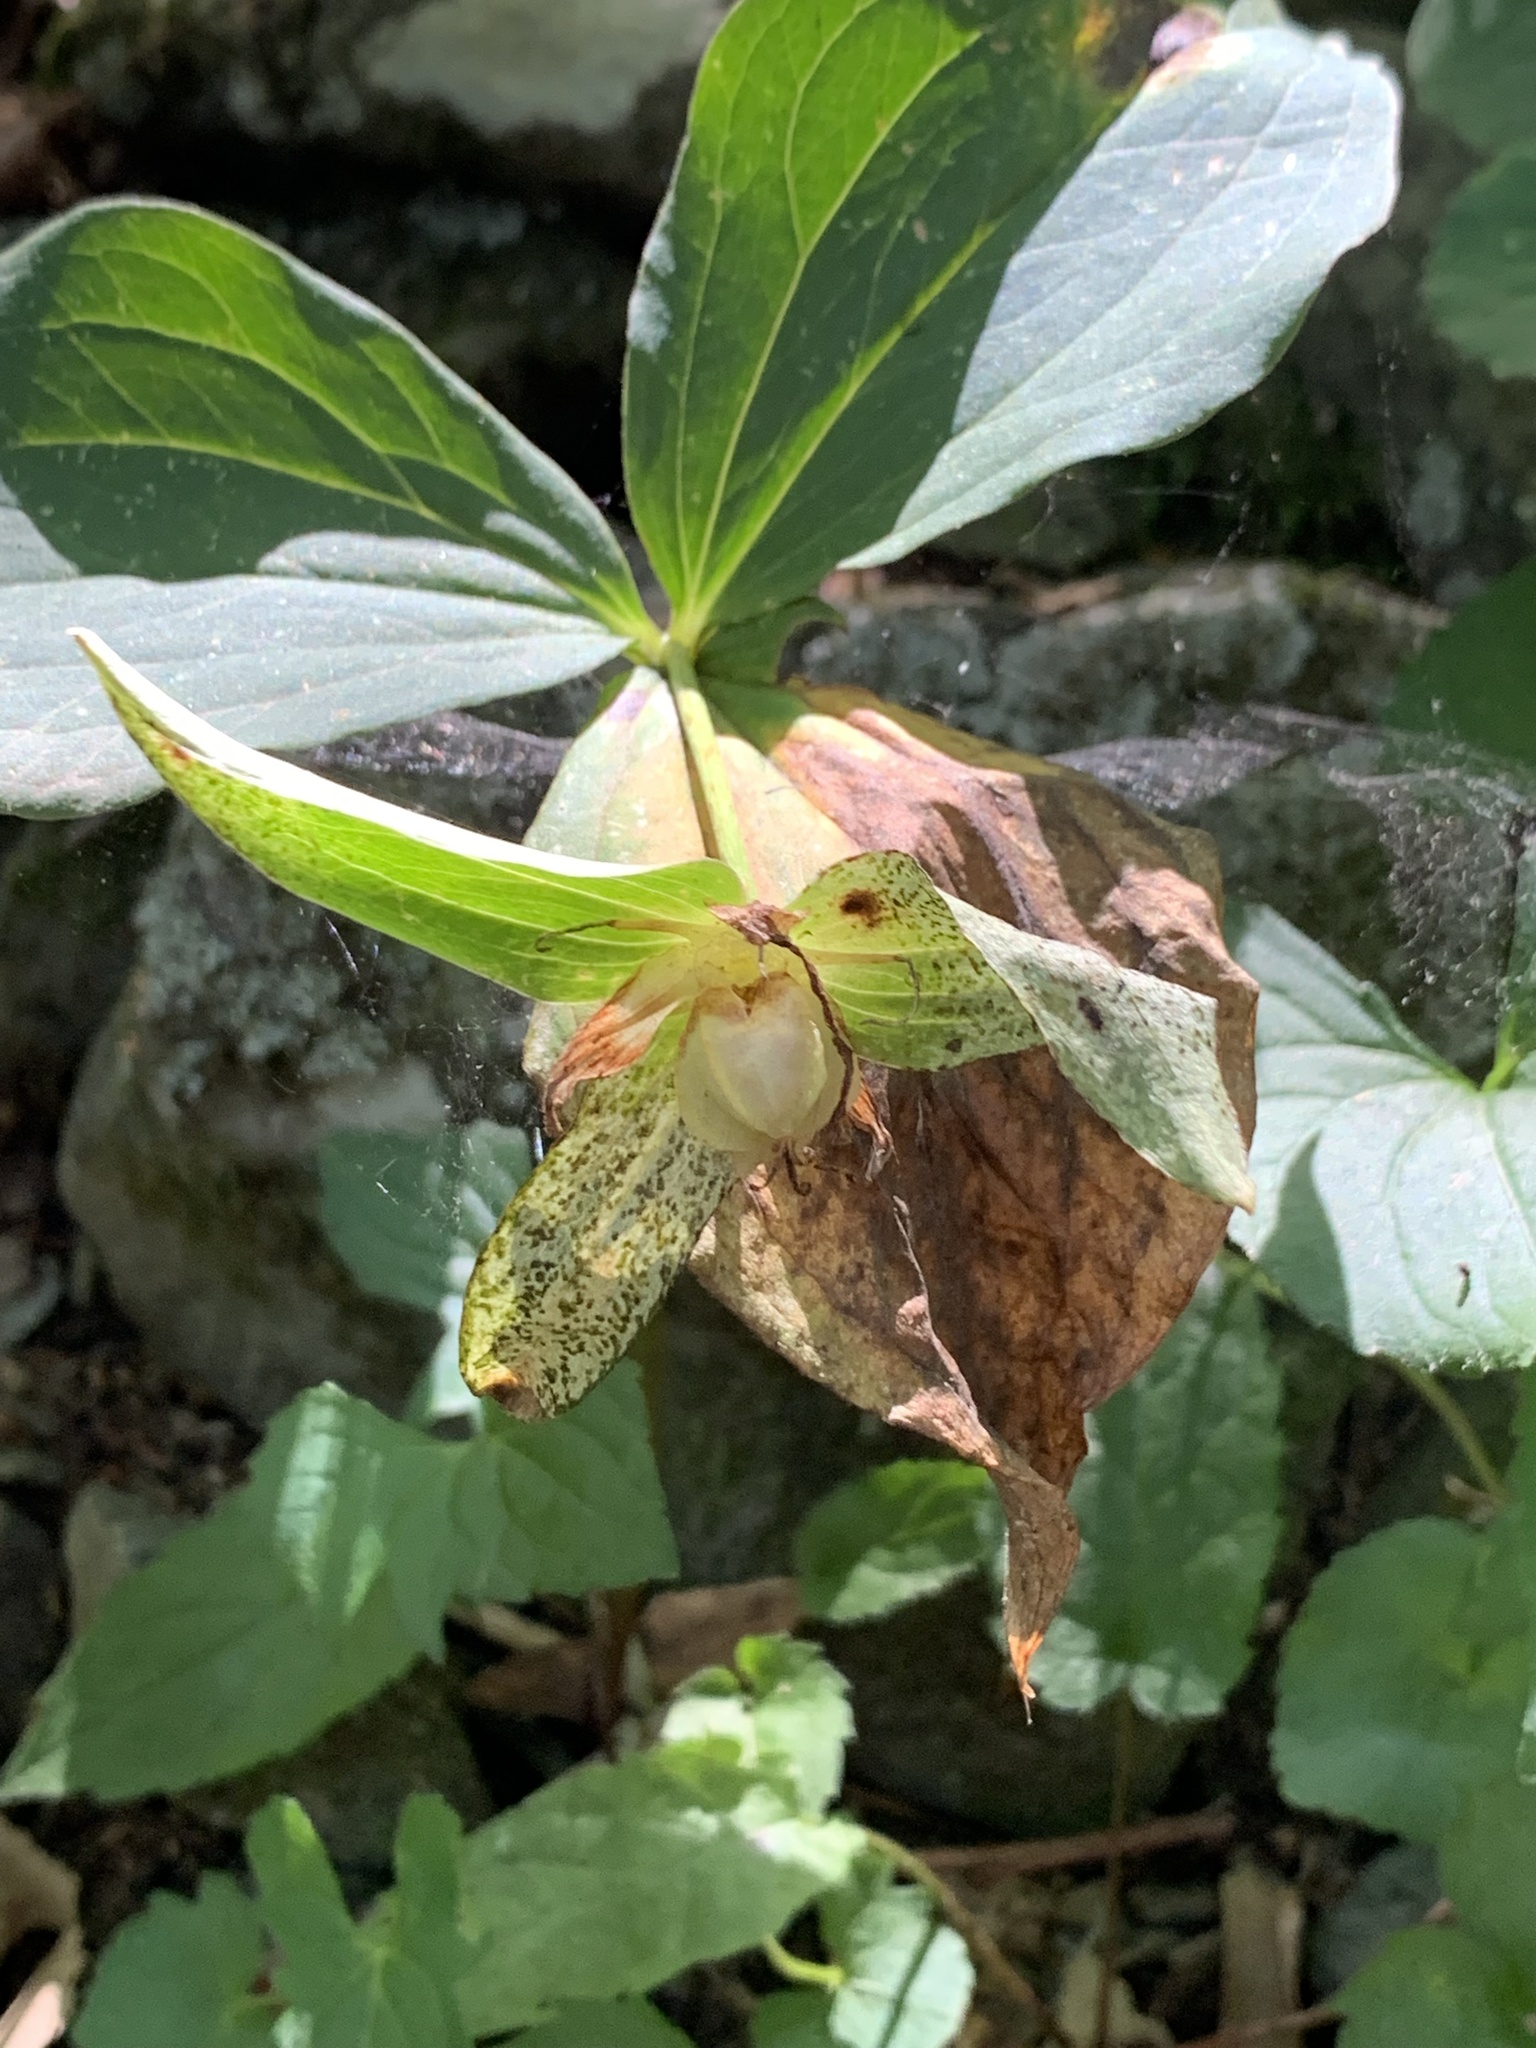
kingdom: Plantae
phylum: Tracheophyta
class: Liliopsida
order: Liliales
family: Melanthiaceae
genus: Trillium
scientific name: Trillium grandiflorum
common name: Great white trillium
